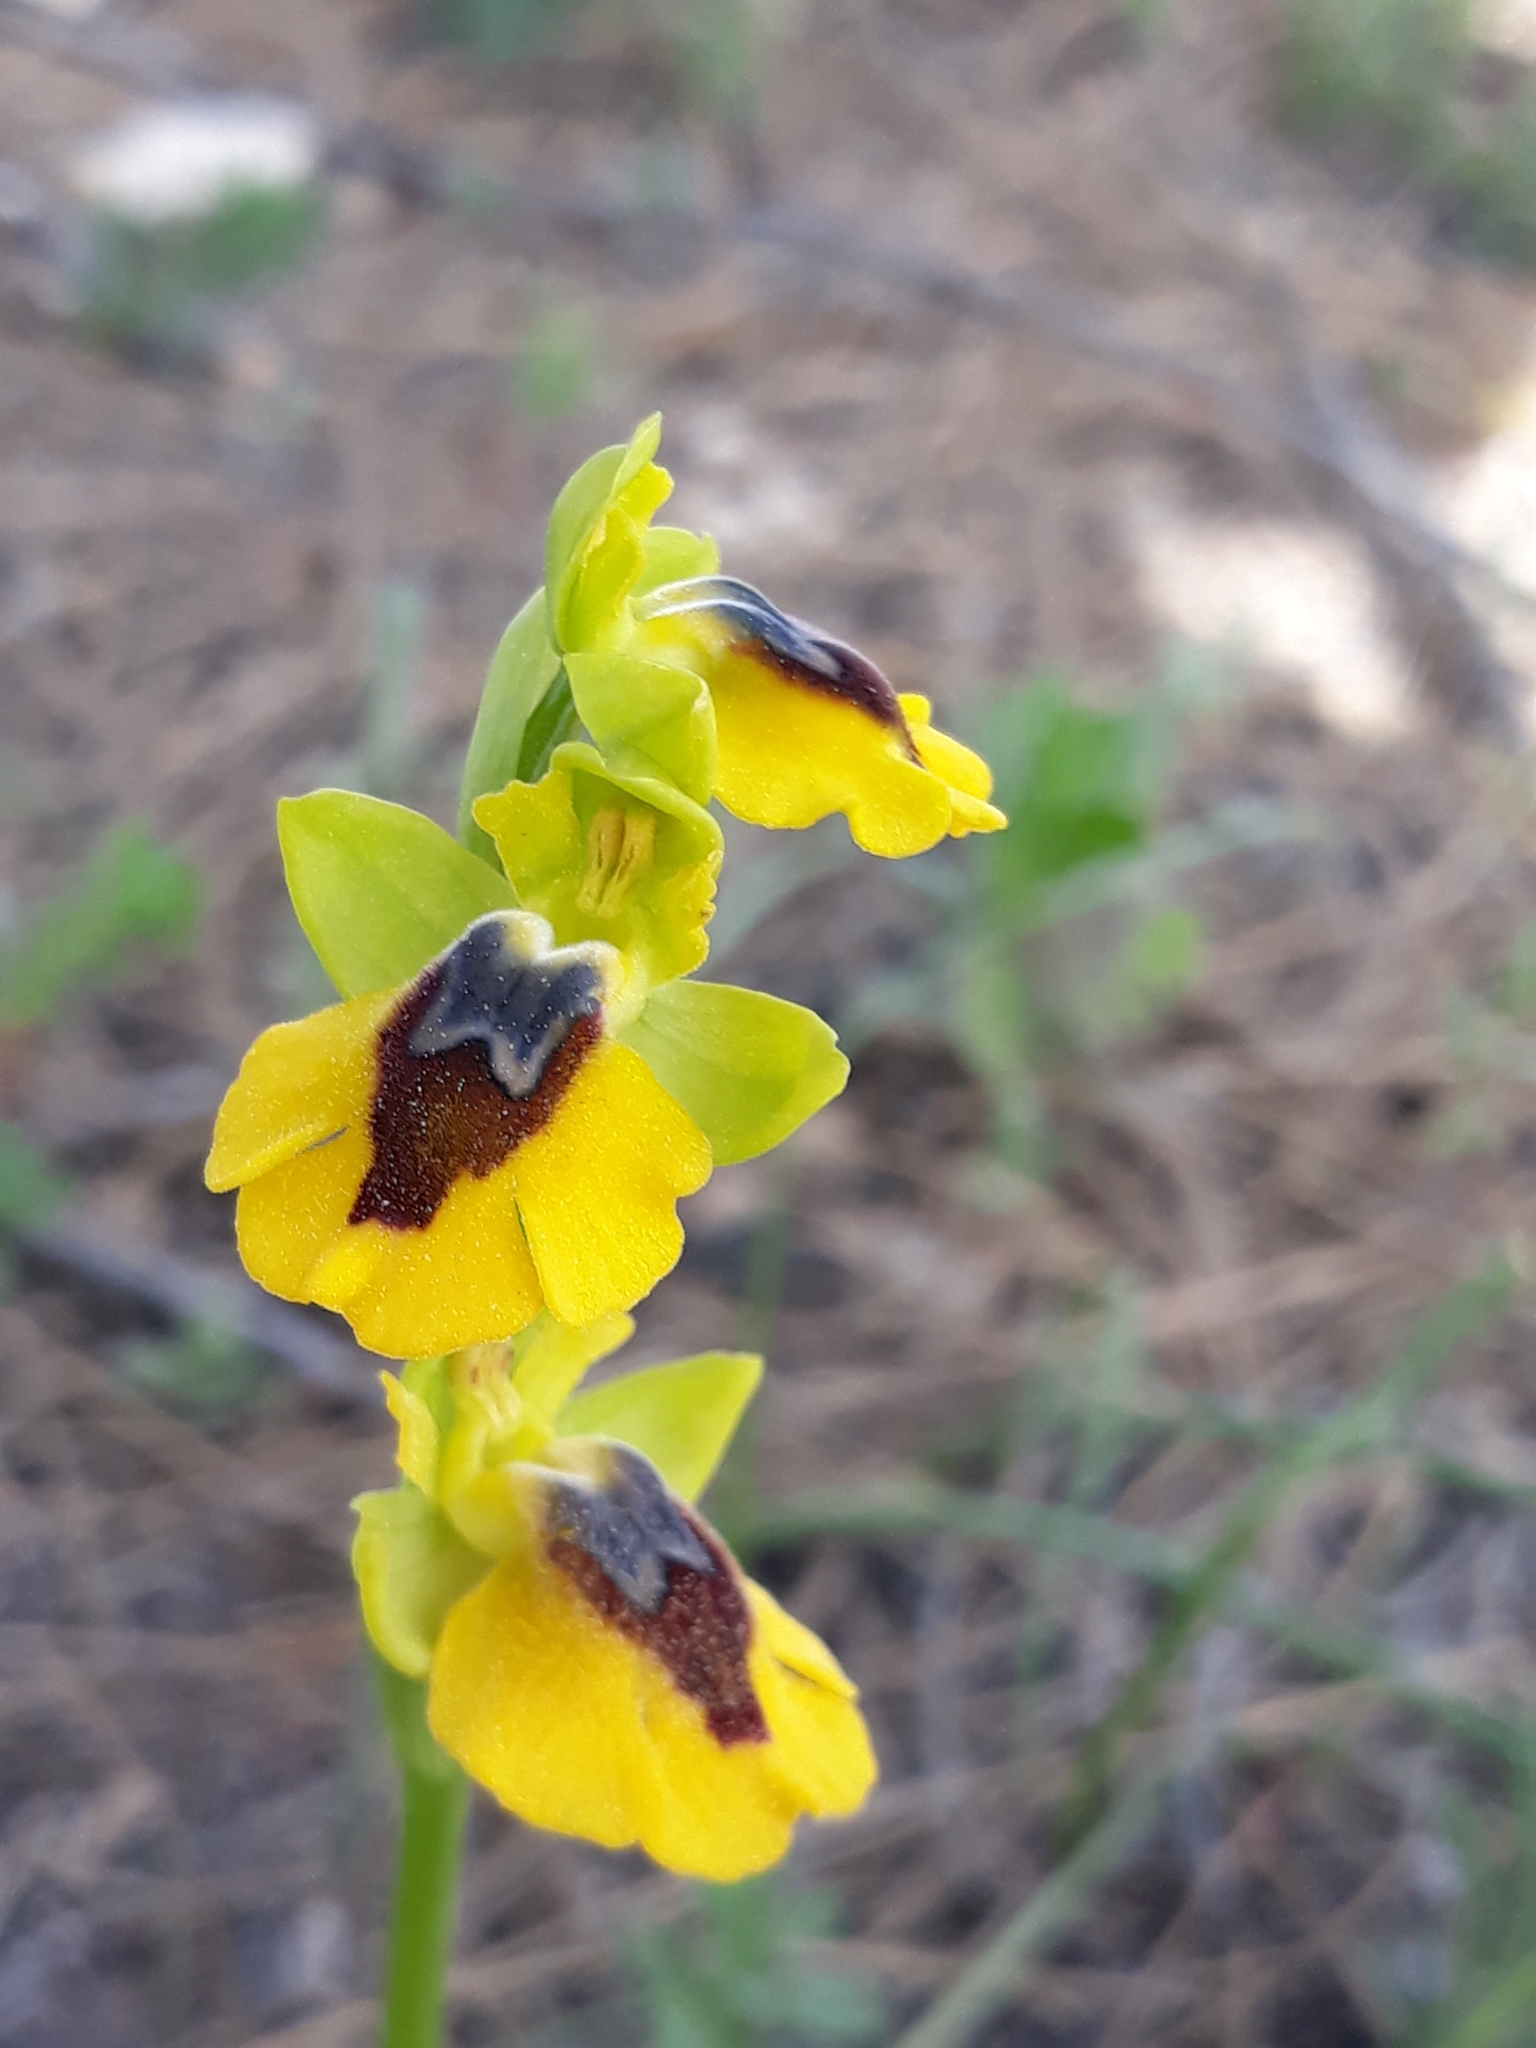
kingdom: Plantae
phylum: Tracheophyta
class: Liliopsida
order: Asparagales
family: Orchidaceae
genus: Ophrys
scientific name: Ophrys lutea
